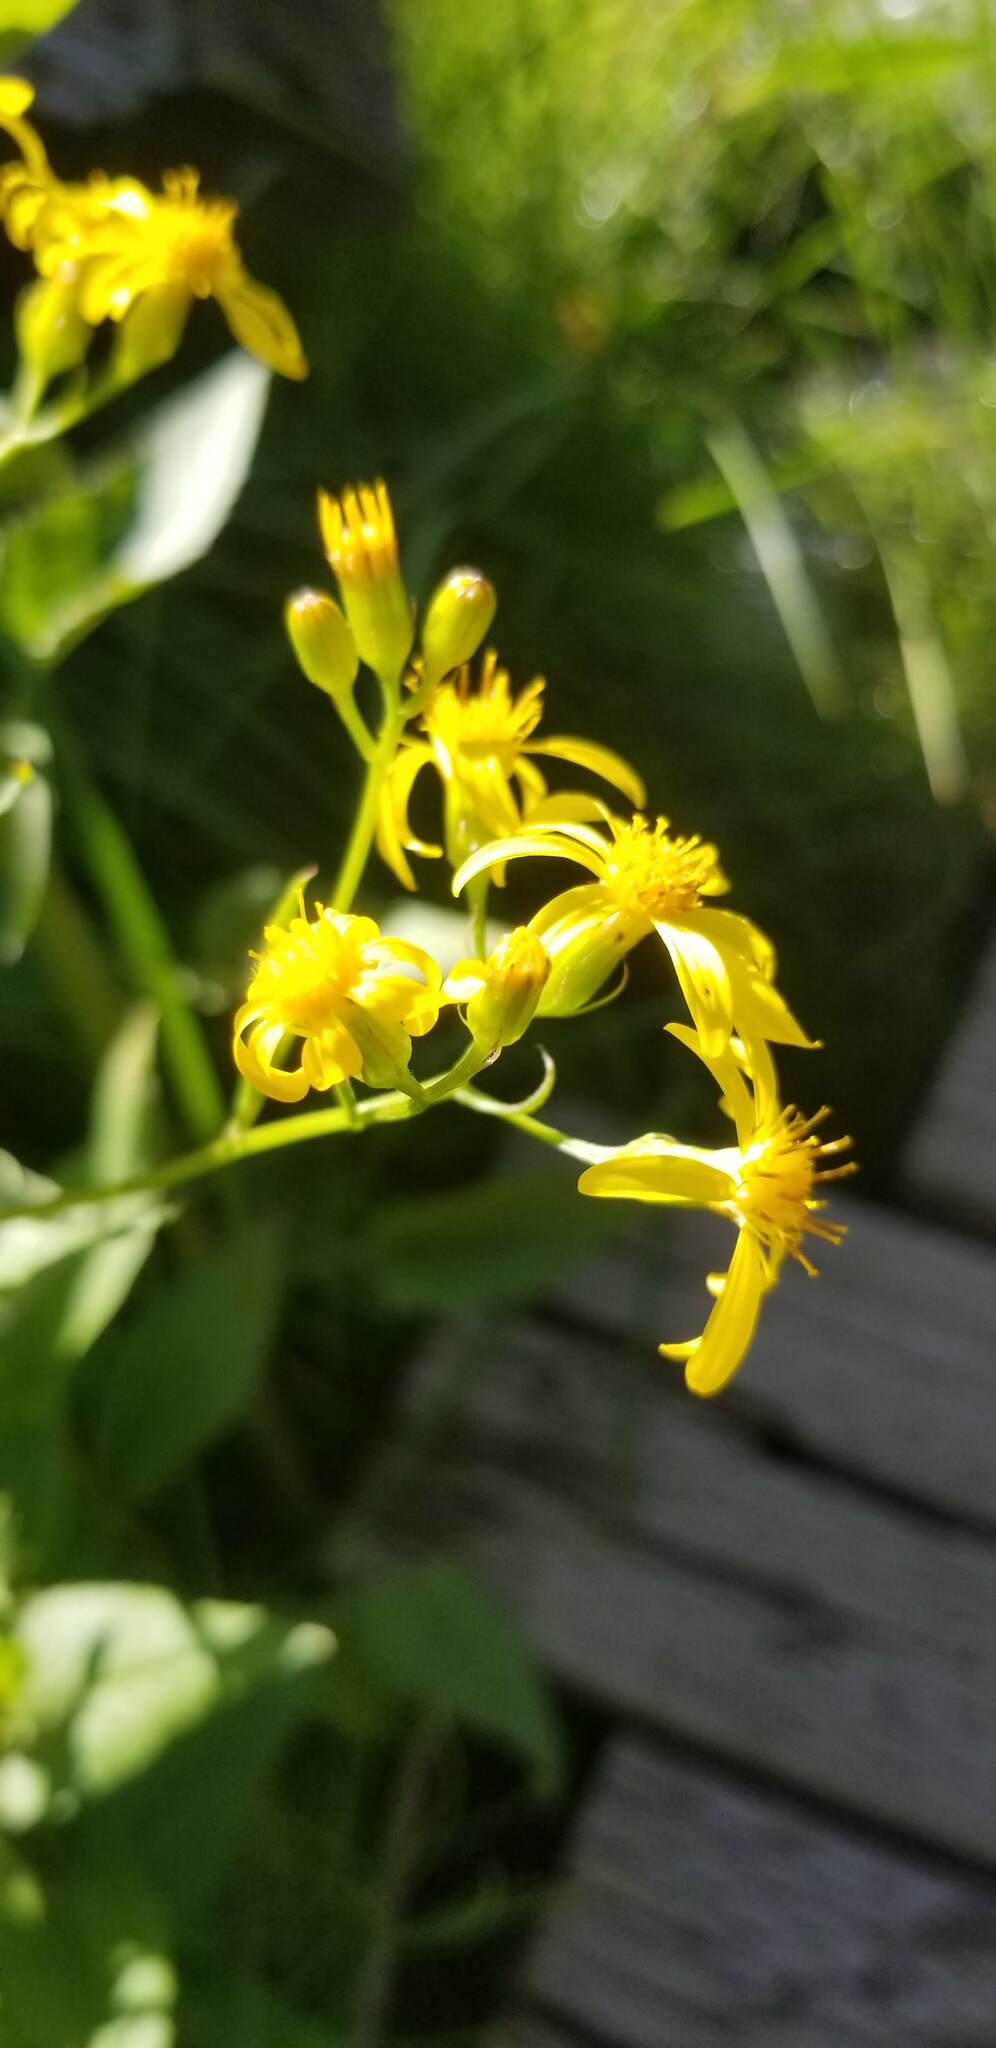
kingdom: Plantae
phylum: Tracheophyta
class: Magnoliopsida
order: Asterales
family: Asteraceae
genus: Senecio
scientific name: Senecio triangularis
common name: Arrowleaf butterweed
